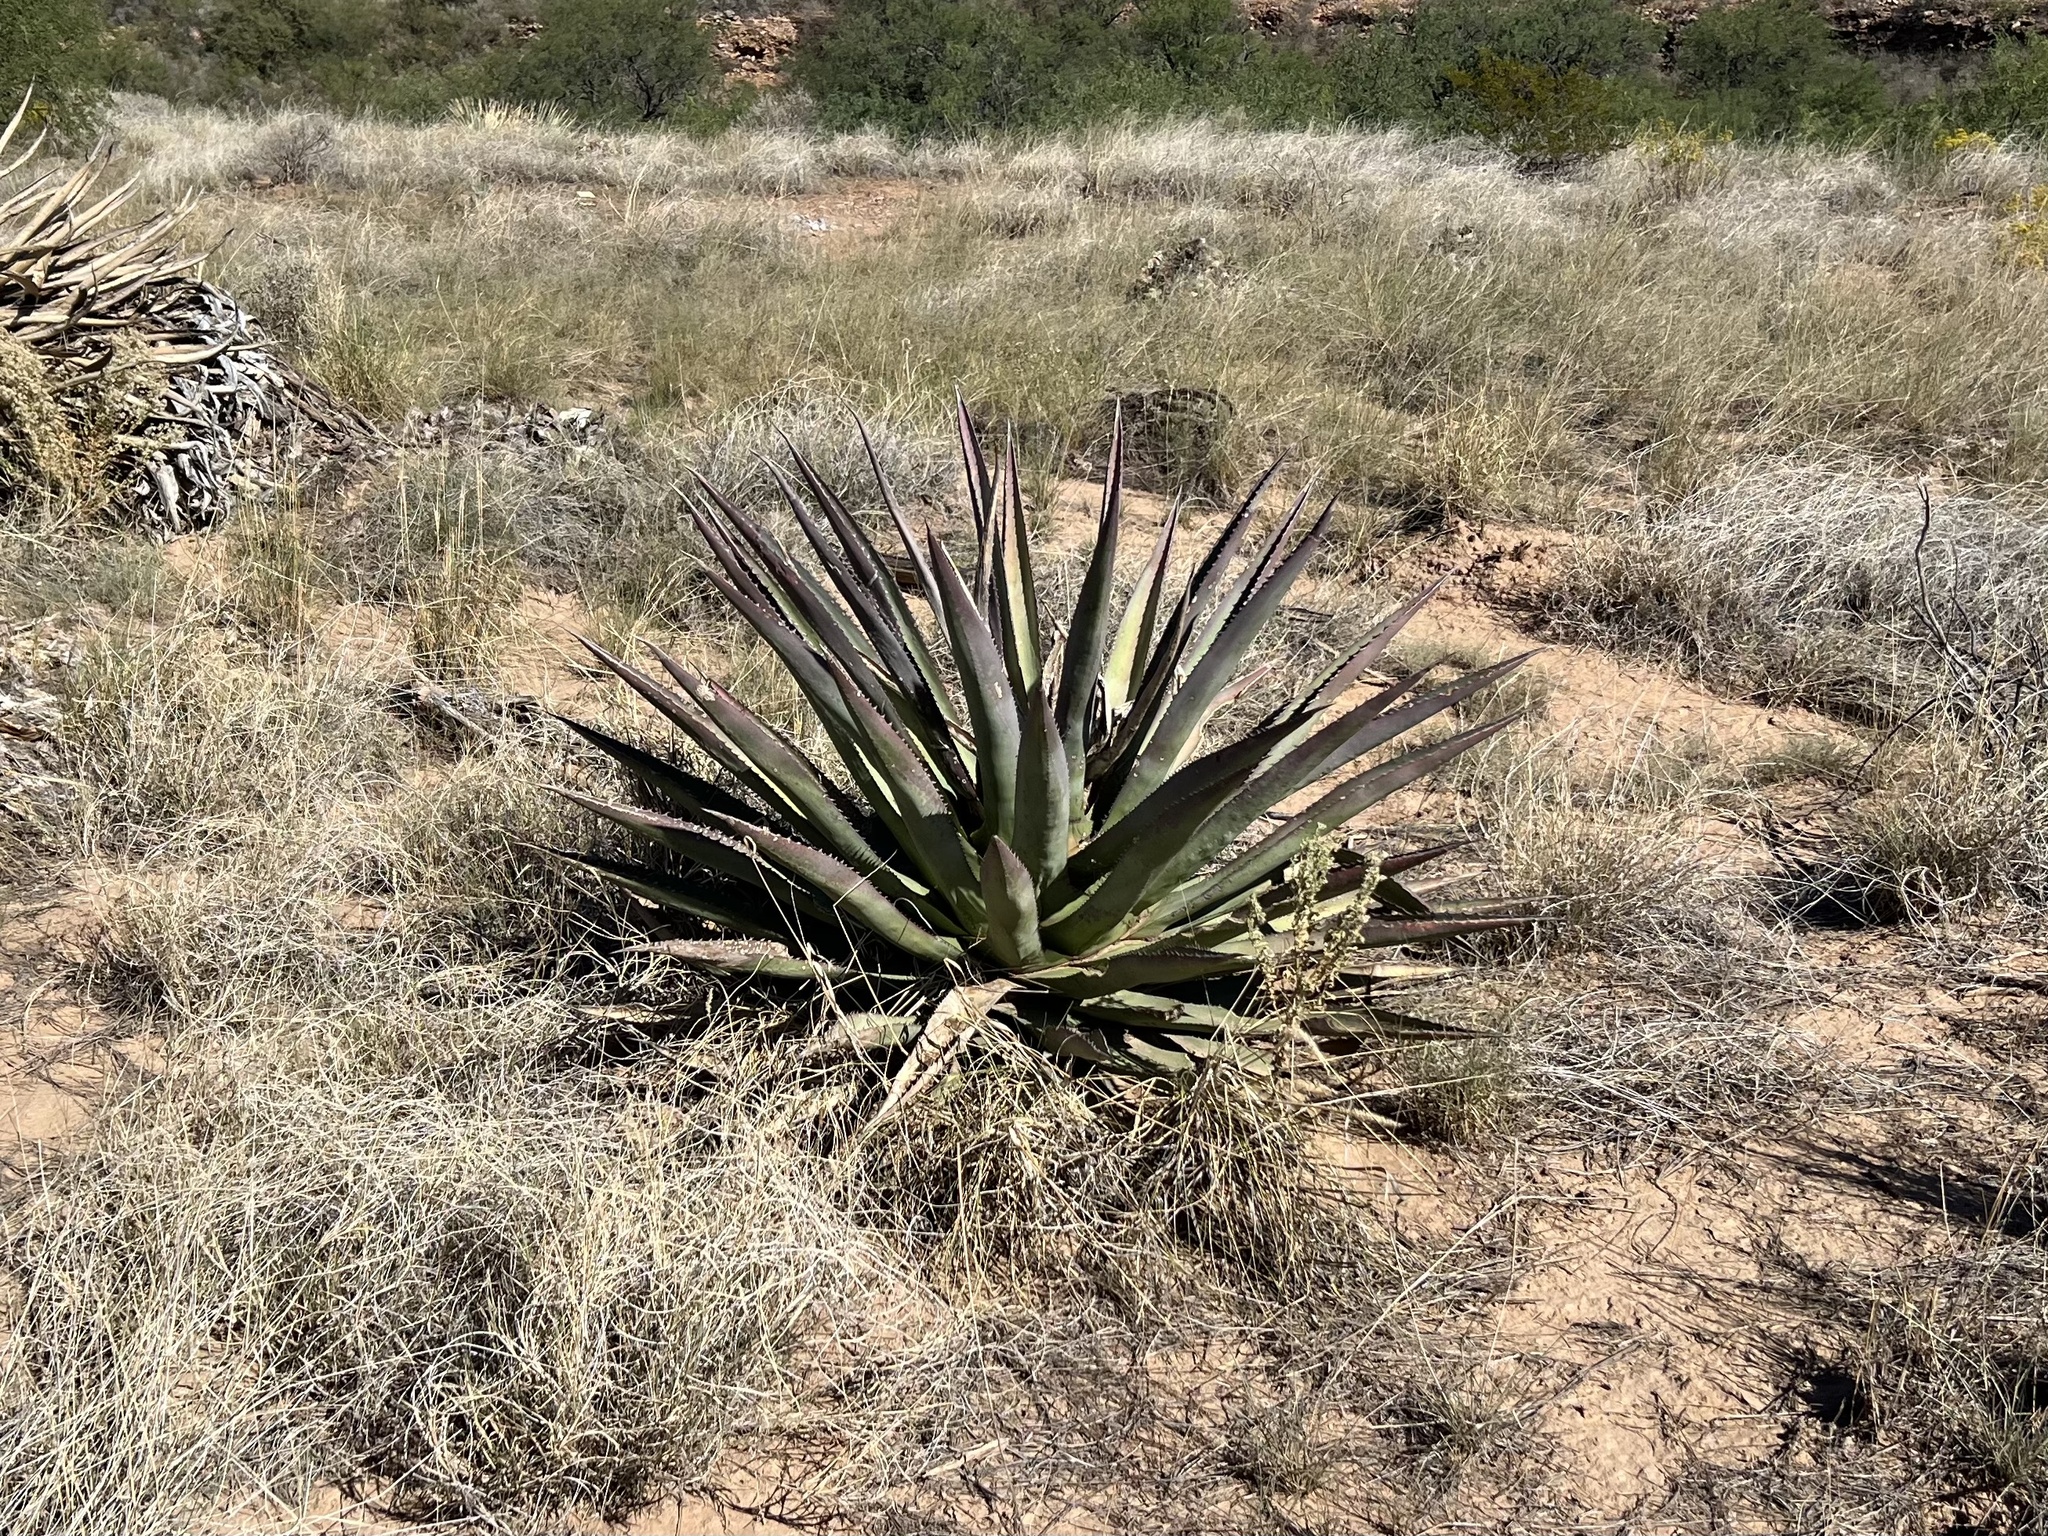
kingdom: Plantae
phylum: Tracheophyta
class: Liliopsida
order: Asparagales
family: Asparagaceae
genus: Agave
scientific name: Agave palmeri
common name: Palmer agave
